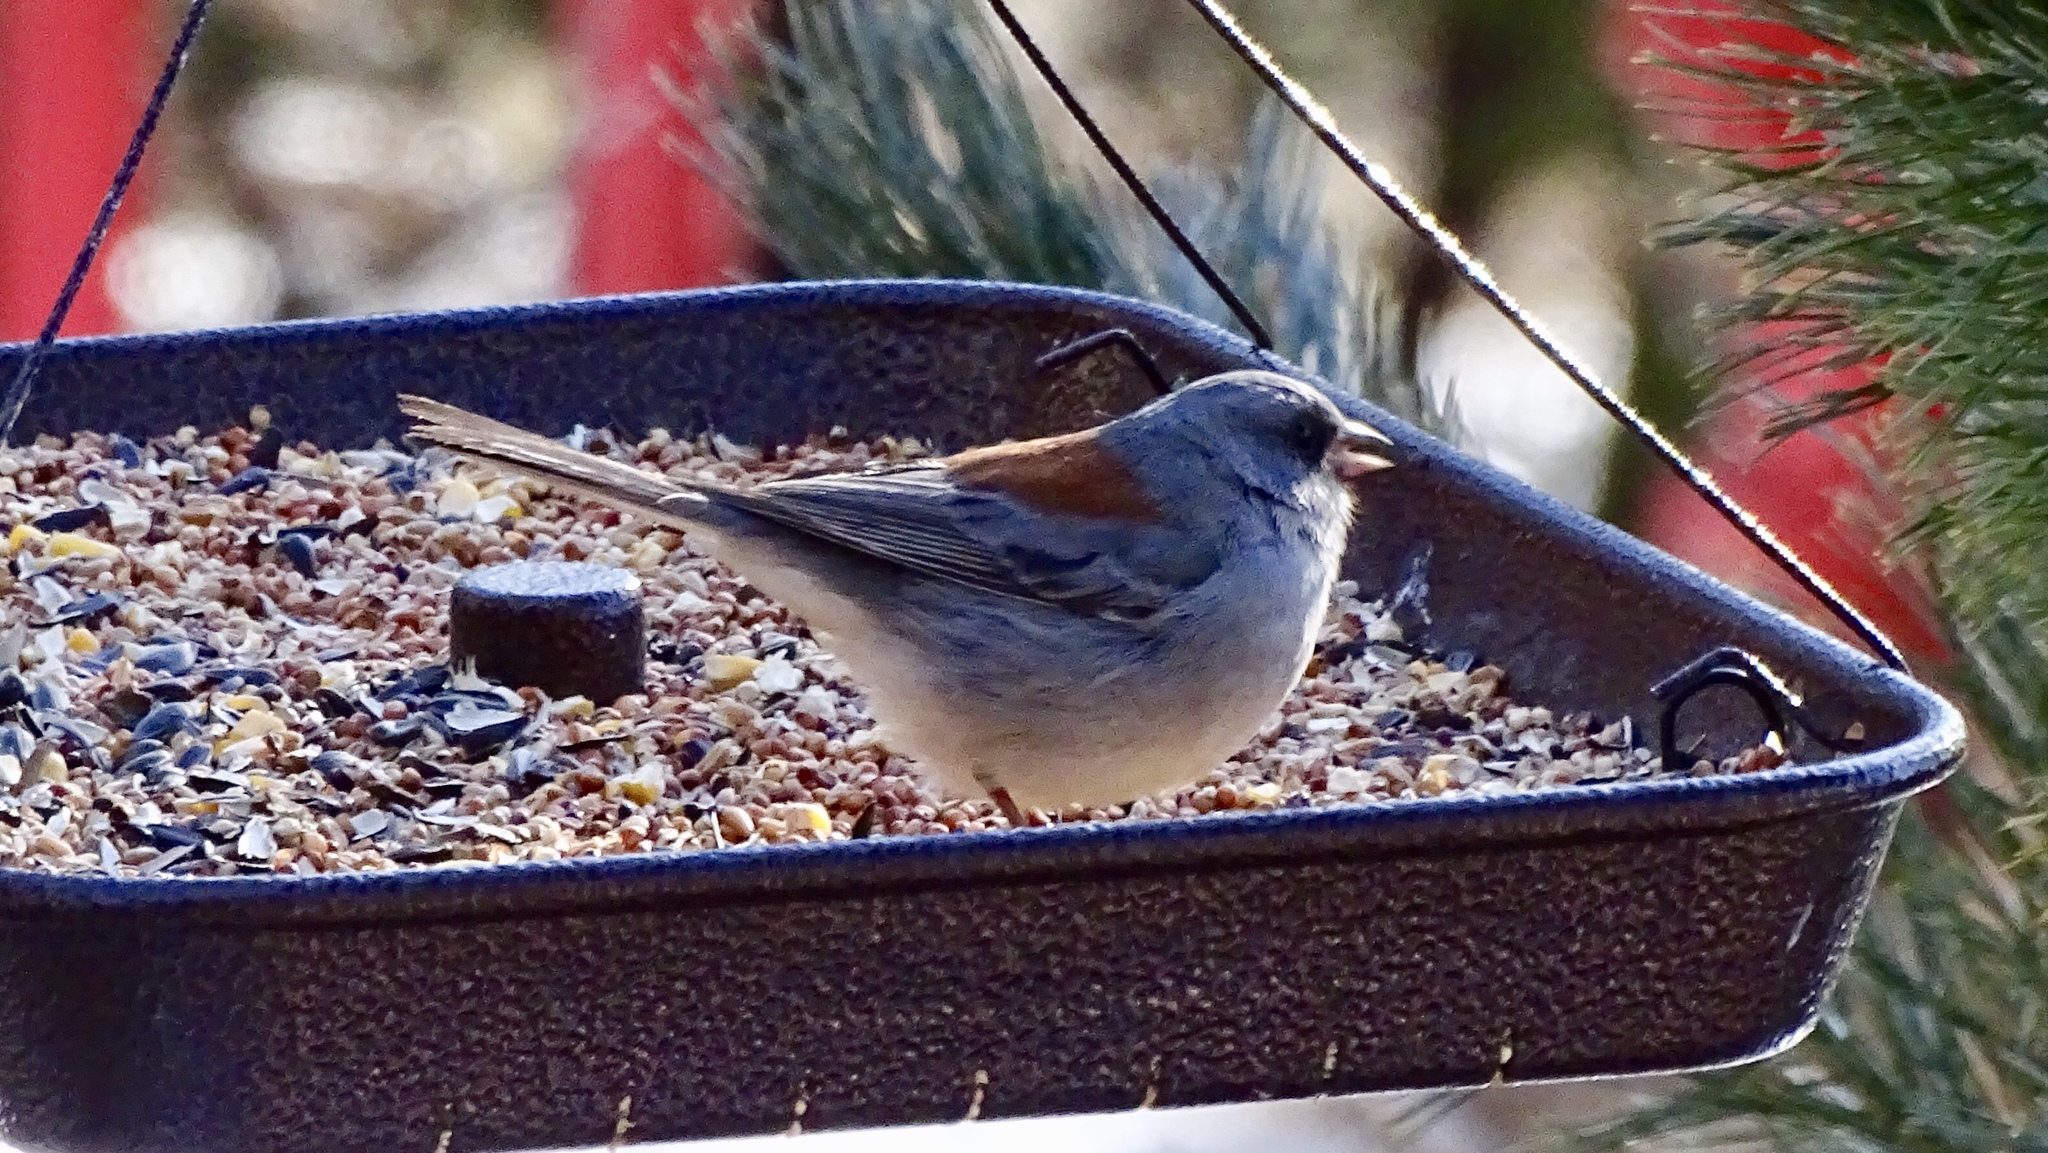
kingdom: Animalia
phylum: Chordata
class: Aves
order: Passeriformes
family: Passerellidae
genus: Junco
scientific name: Junco hyemalis
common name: Dark-eyed junco
